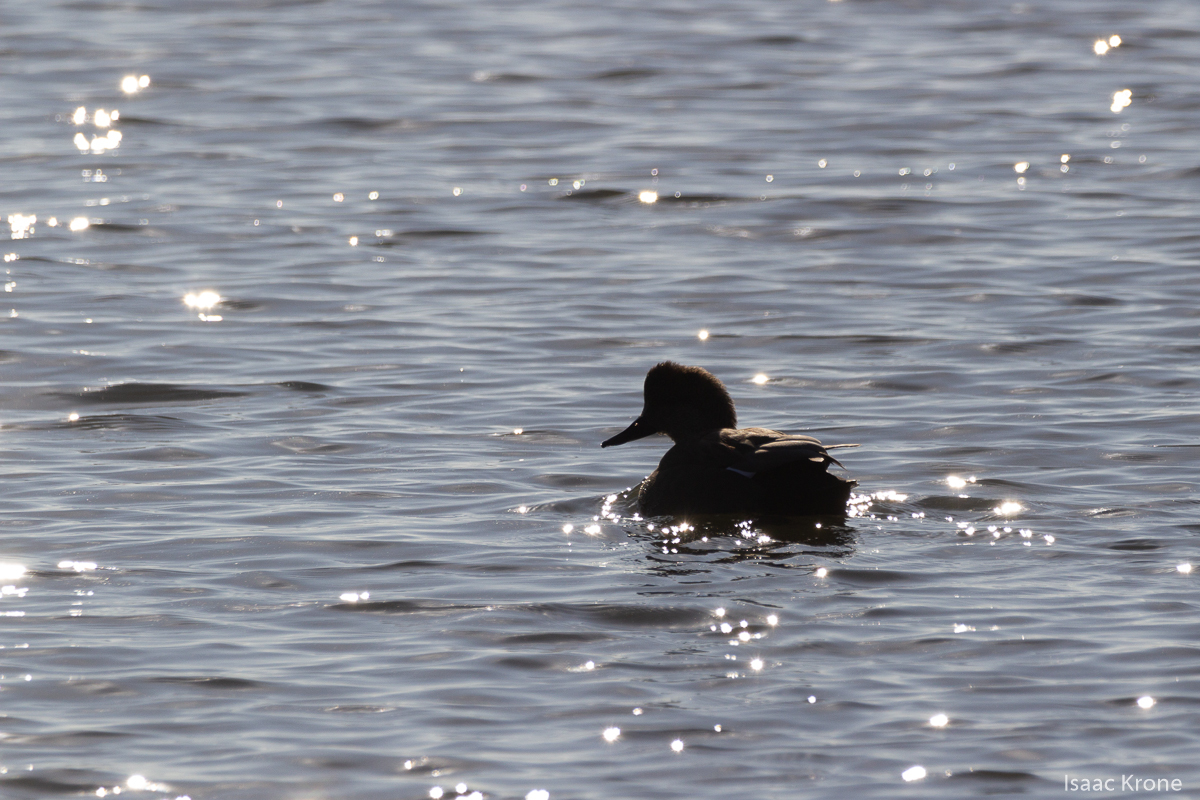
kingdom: Animalia
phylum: Chordata
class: Aves
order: Anseriformes
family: Anatidae
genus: Mareca
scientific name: Mareca strepera
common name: Gadwall
